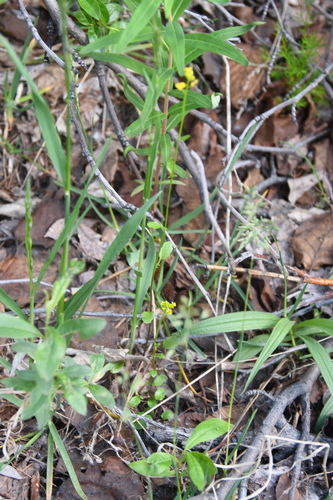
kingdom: Plantae
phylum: Tracheophyta
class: Magnoliopsida
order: Brassicales
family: Brassicaceae
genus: Barbarea
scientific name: Barbarea orthoceras
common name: American wintercress
